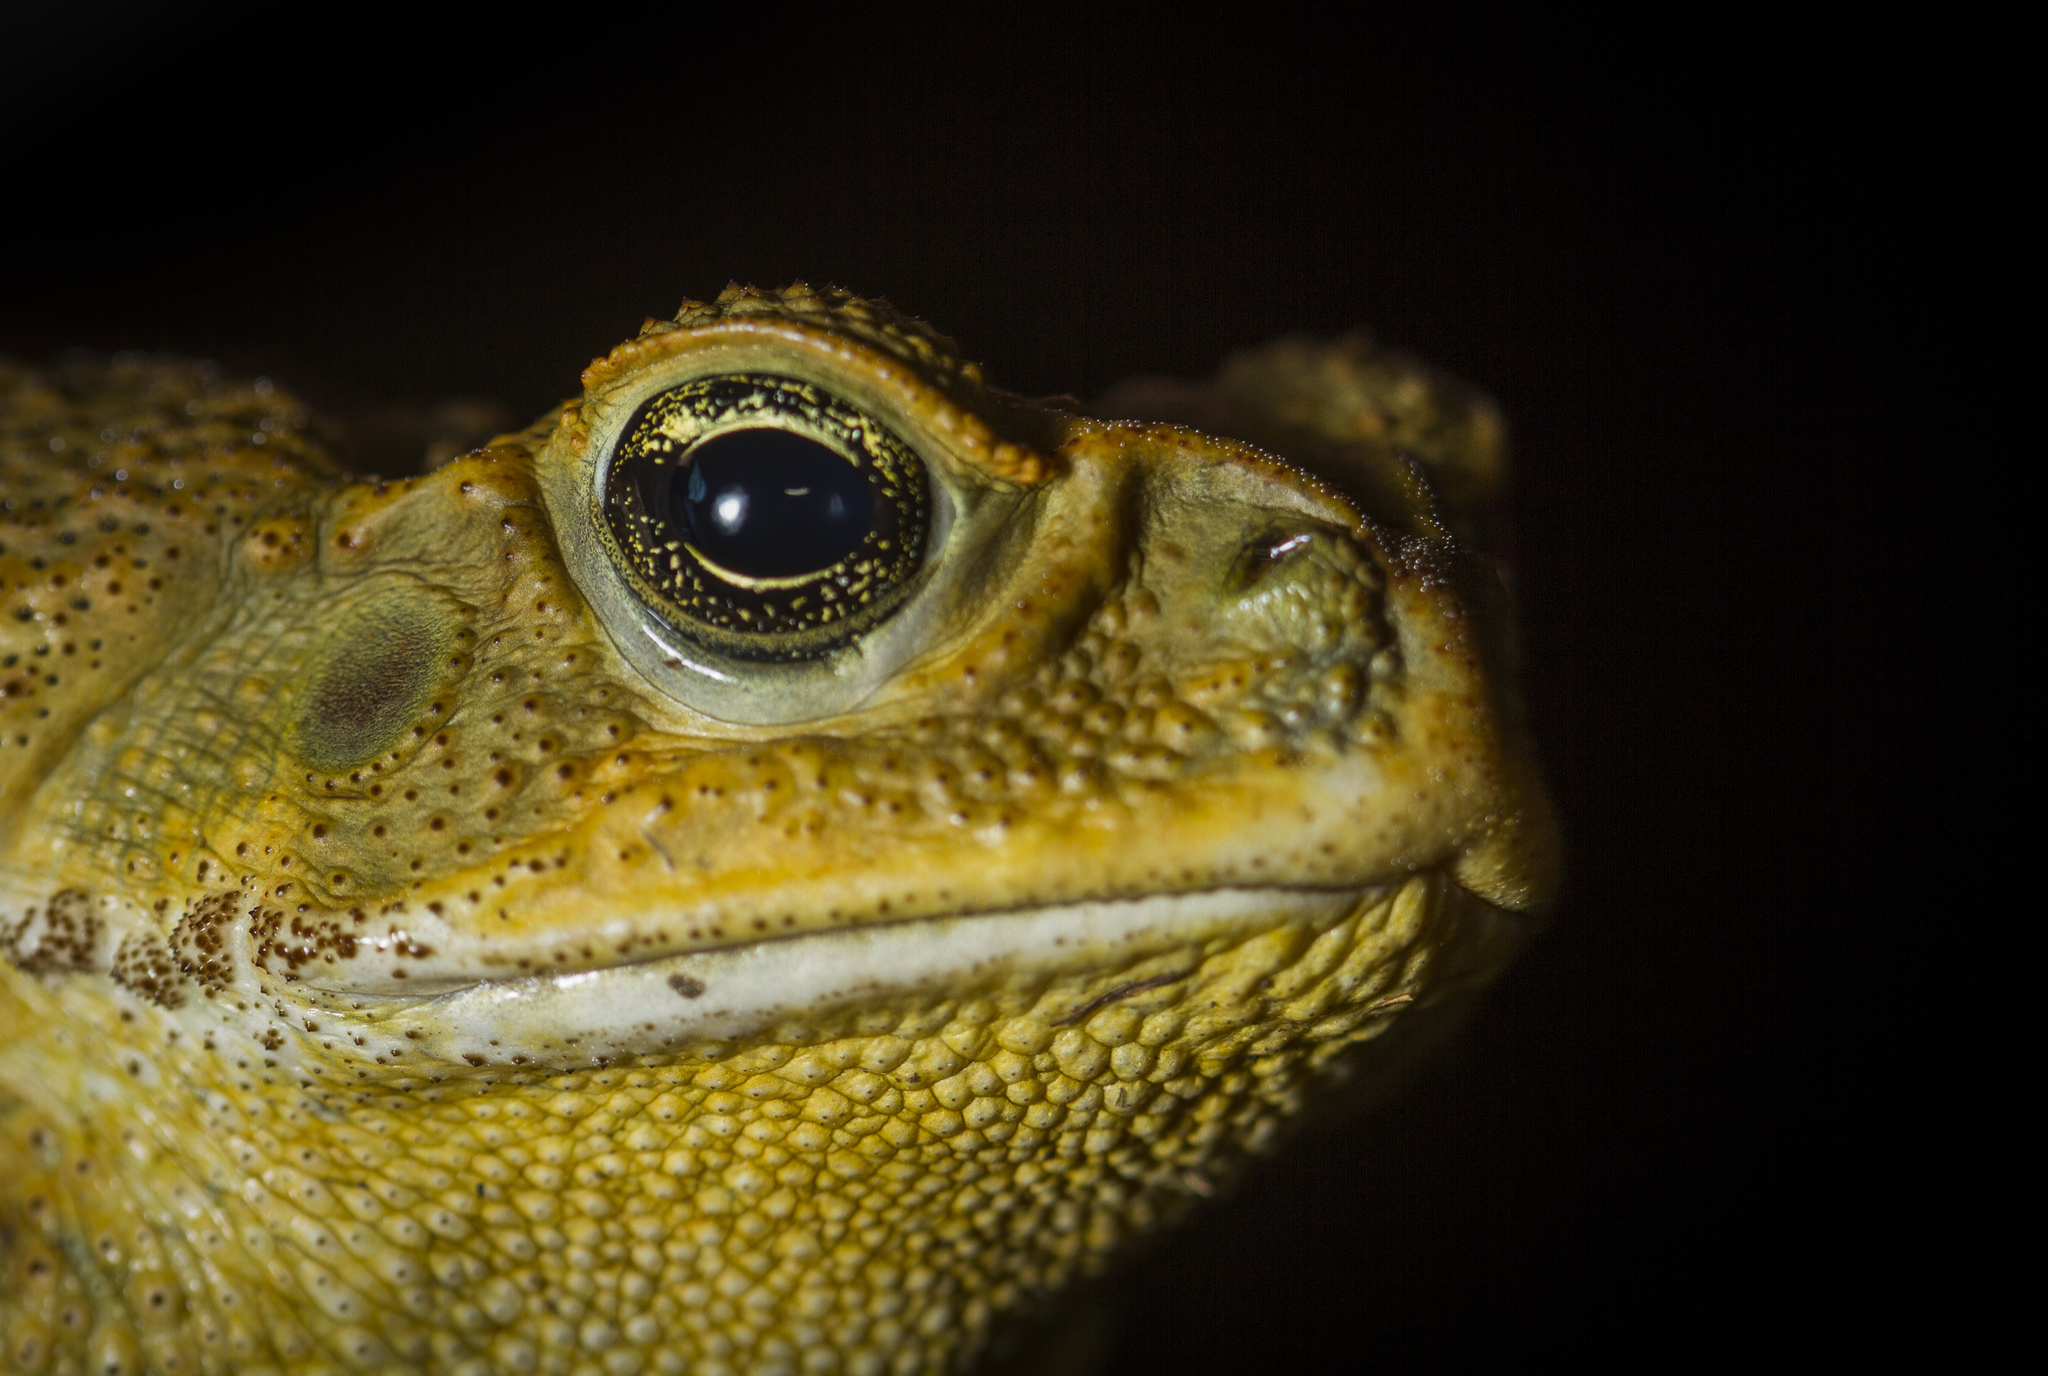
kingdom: Animalia
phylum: Chordata
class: Amphibia
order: Anura
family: Bufonidae
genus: Rhinella
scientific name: Rhinella horribilis
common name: Mesoamerican cane toad
